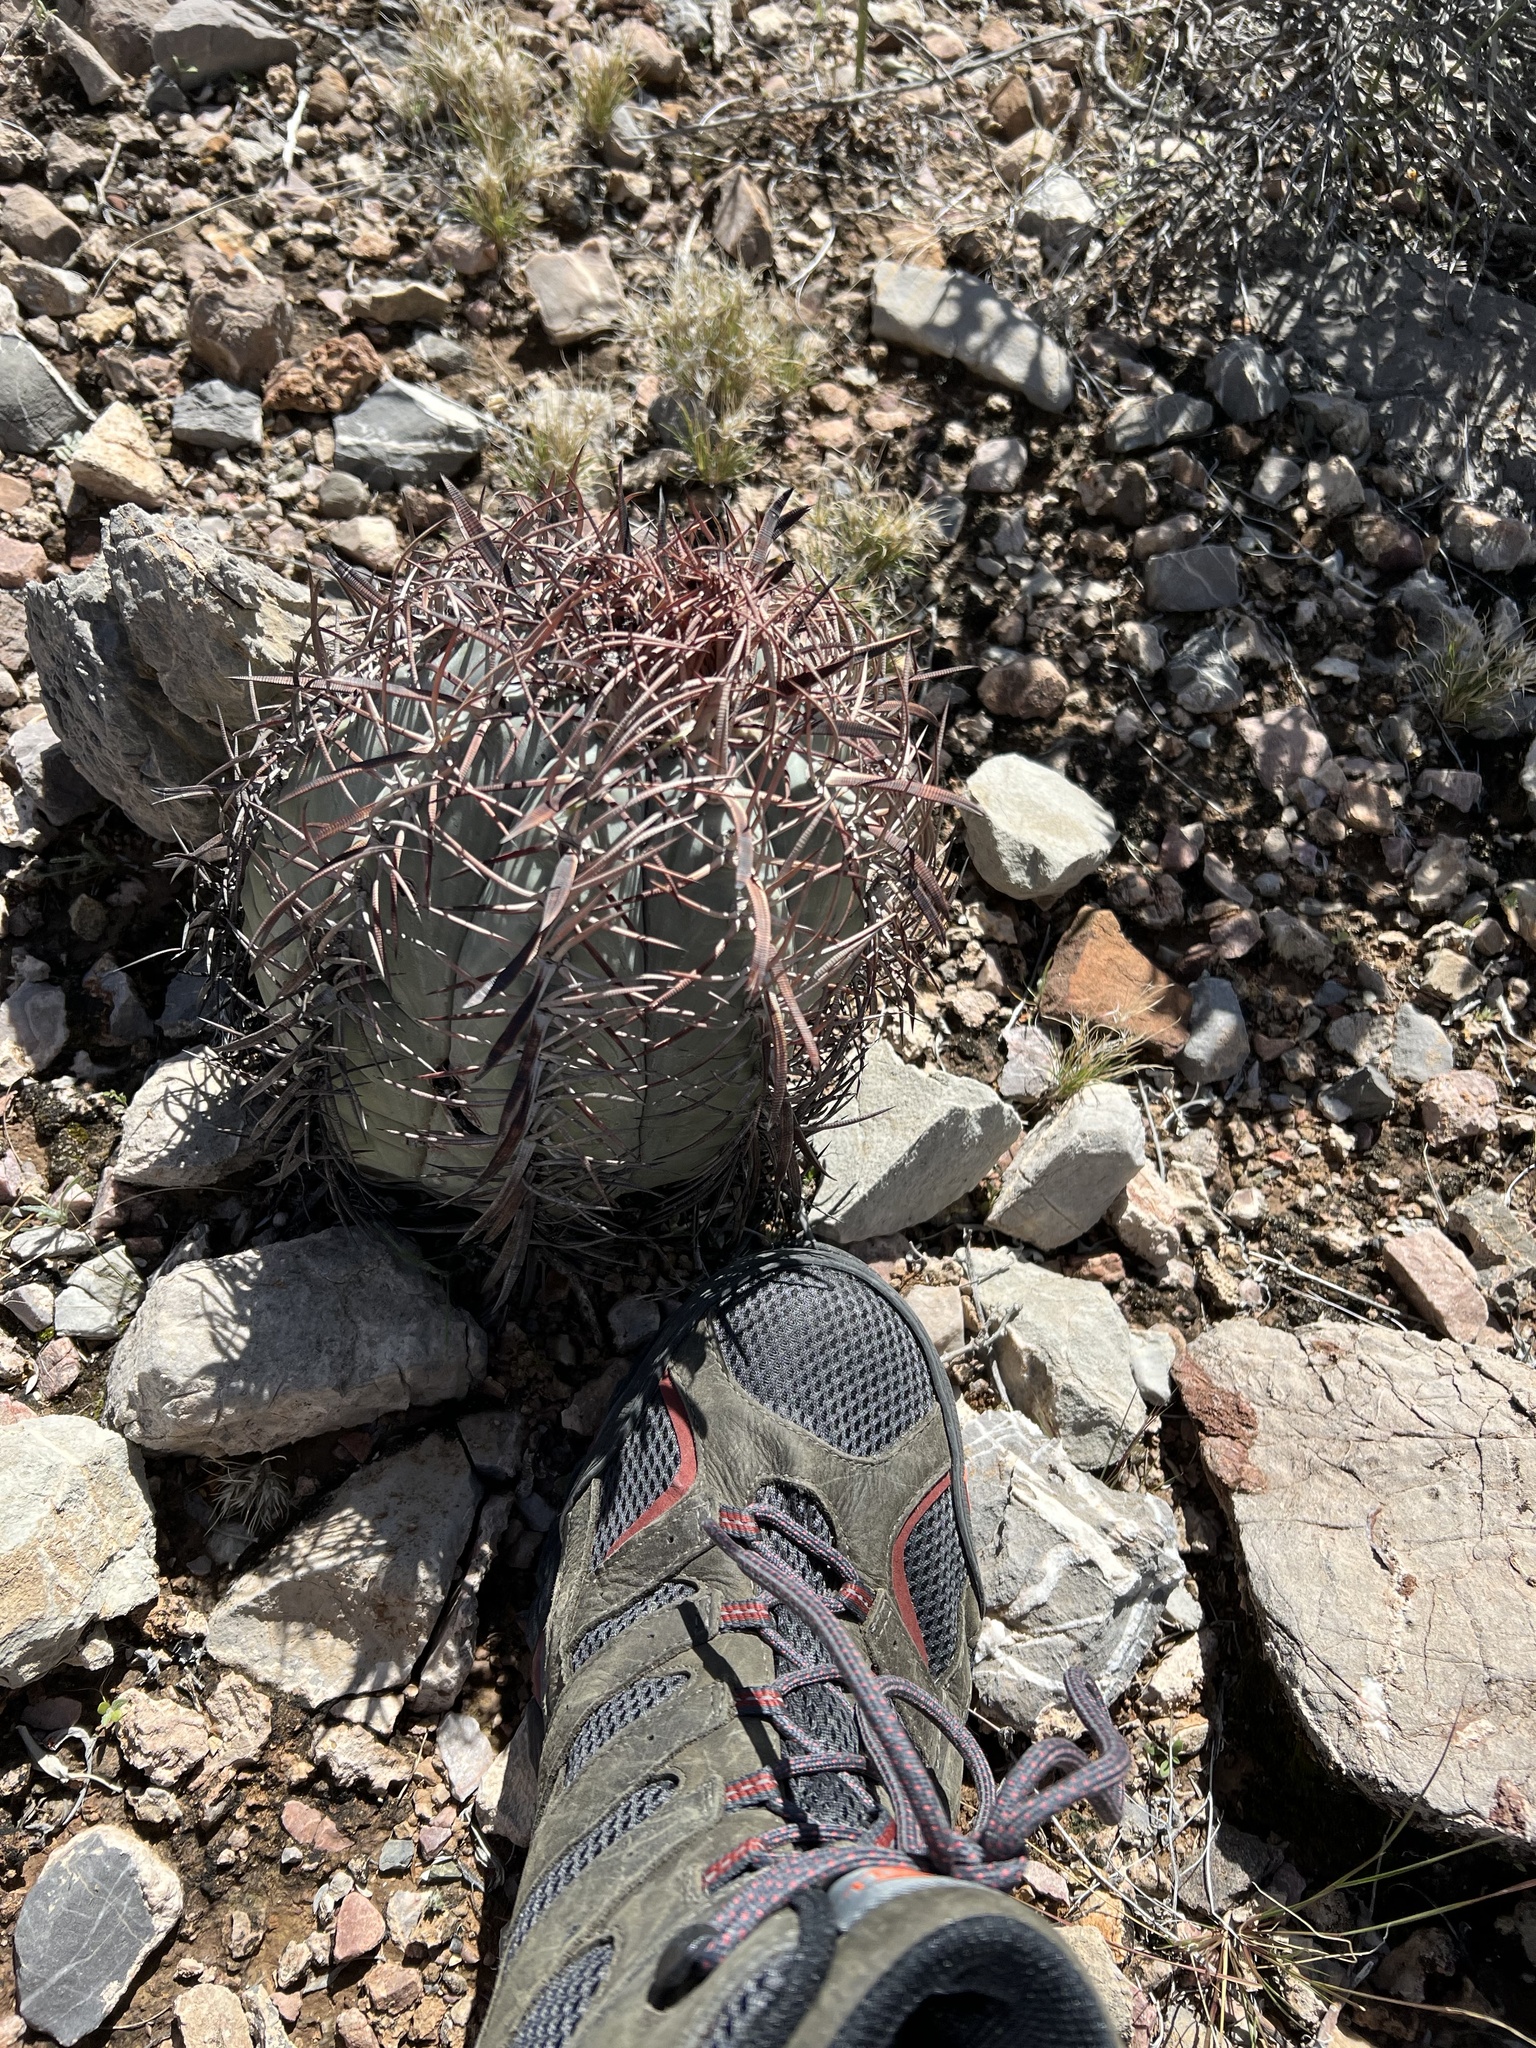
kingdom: Plantae
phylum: Tracheophyta
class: Magnoliopsida
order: Caryophyllales
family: Cactaceae
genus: Echinocactus
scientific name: Echinocactus horizonthalonius
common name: Devilshead
